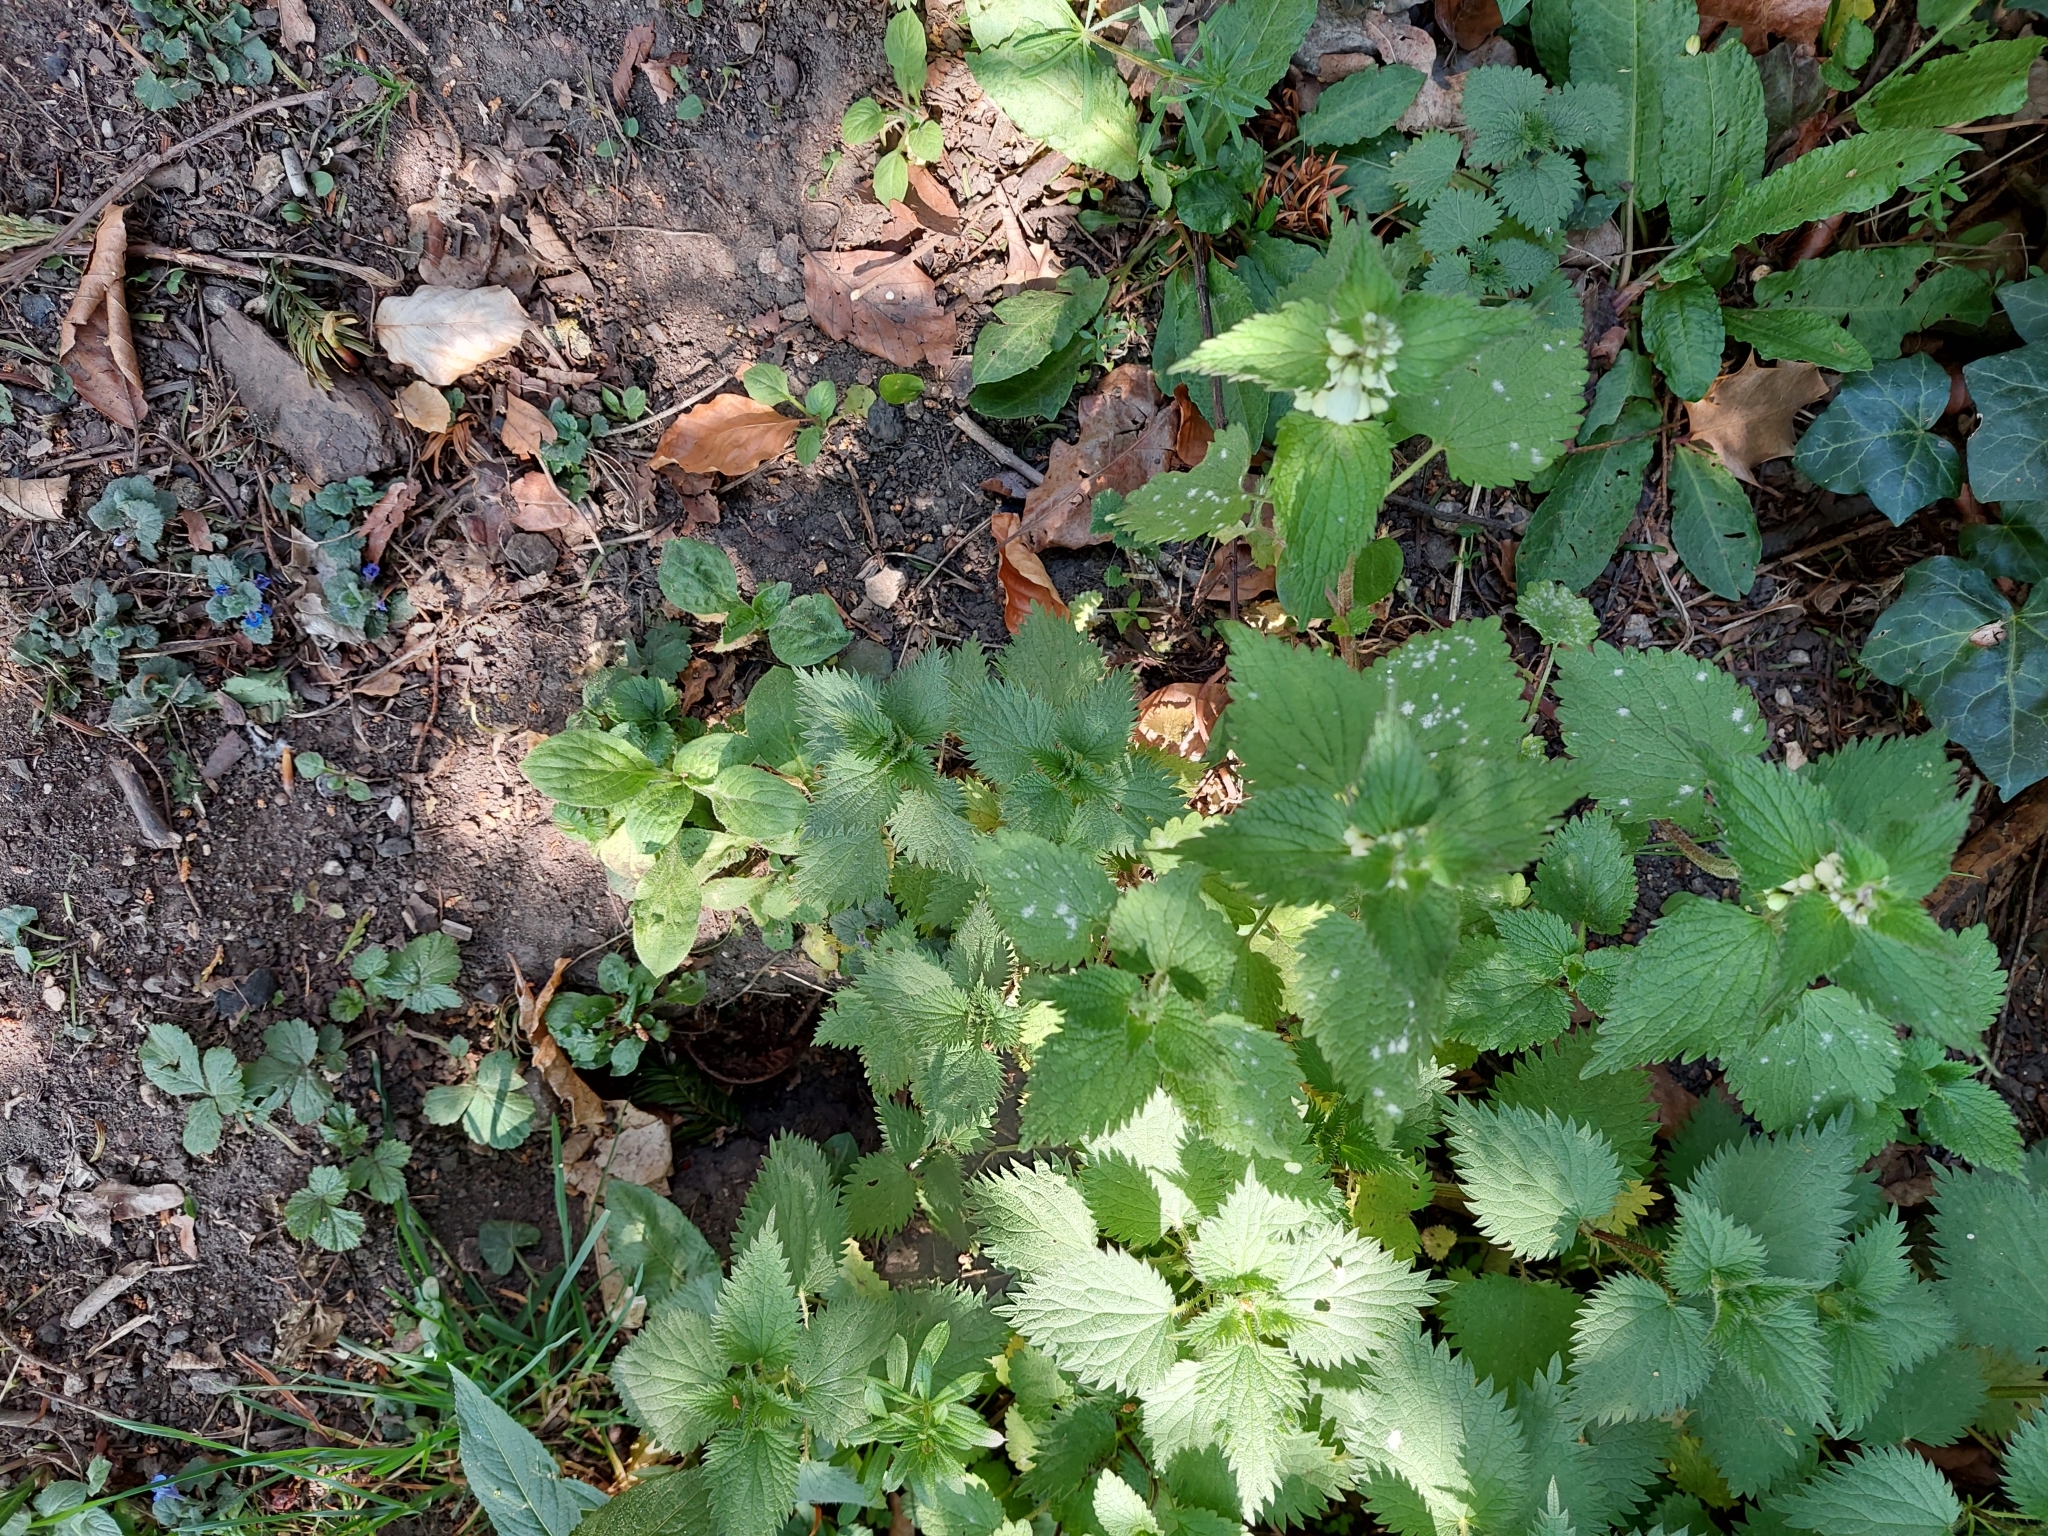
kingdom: Plantae
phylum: Tracheophyta
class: Magnoliopsida
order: Lamiales
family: Lamiaceae
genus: Lamium
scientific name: Lamium album
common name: White dead-nettle
